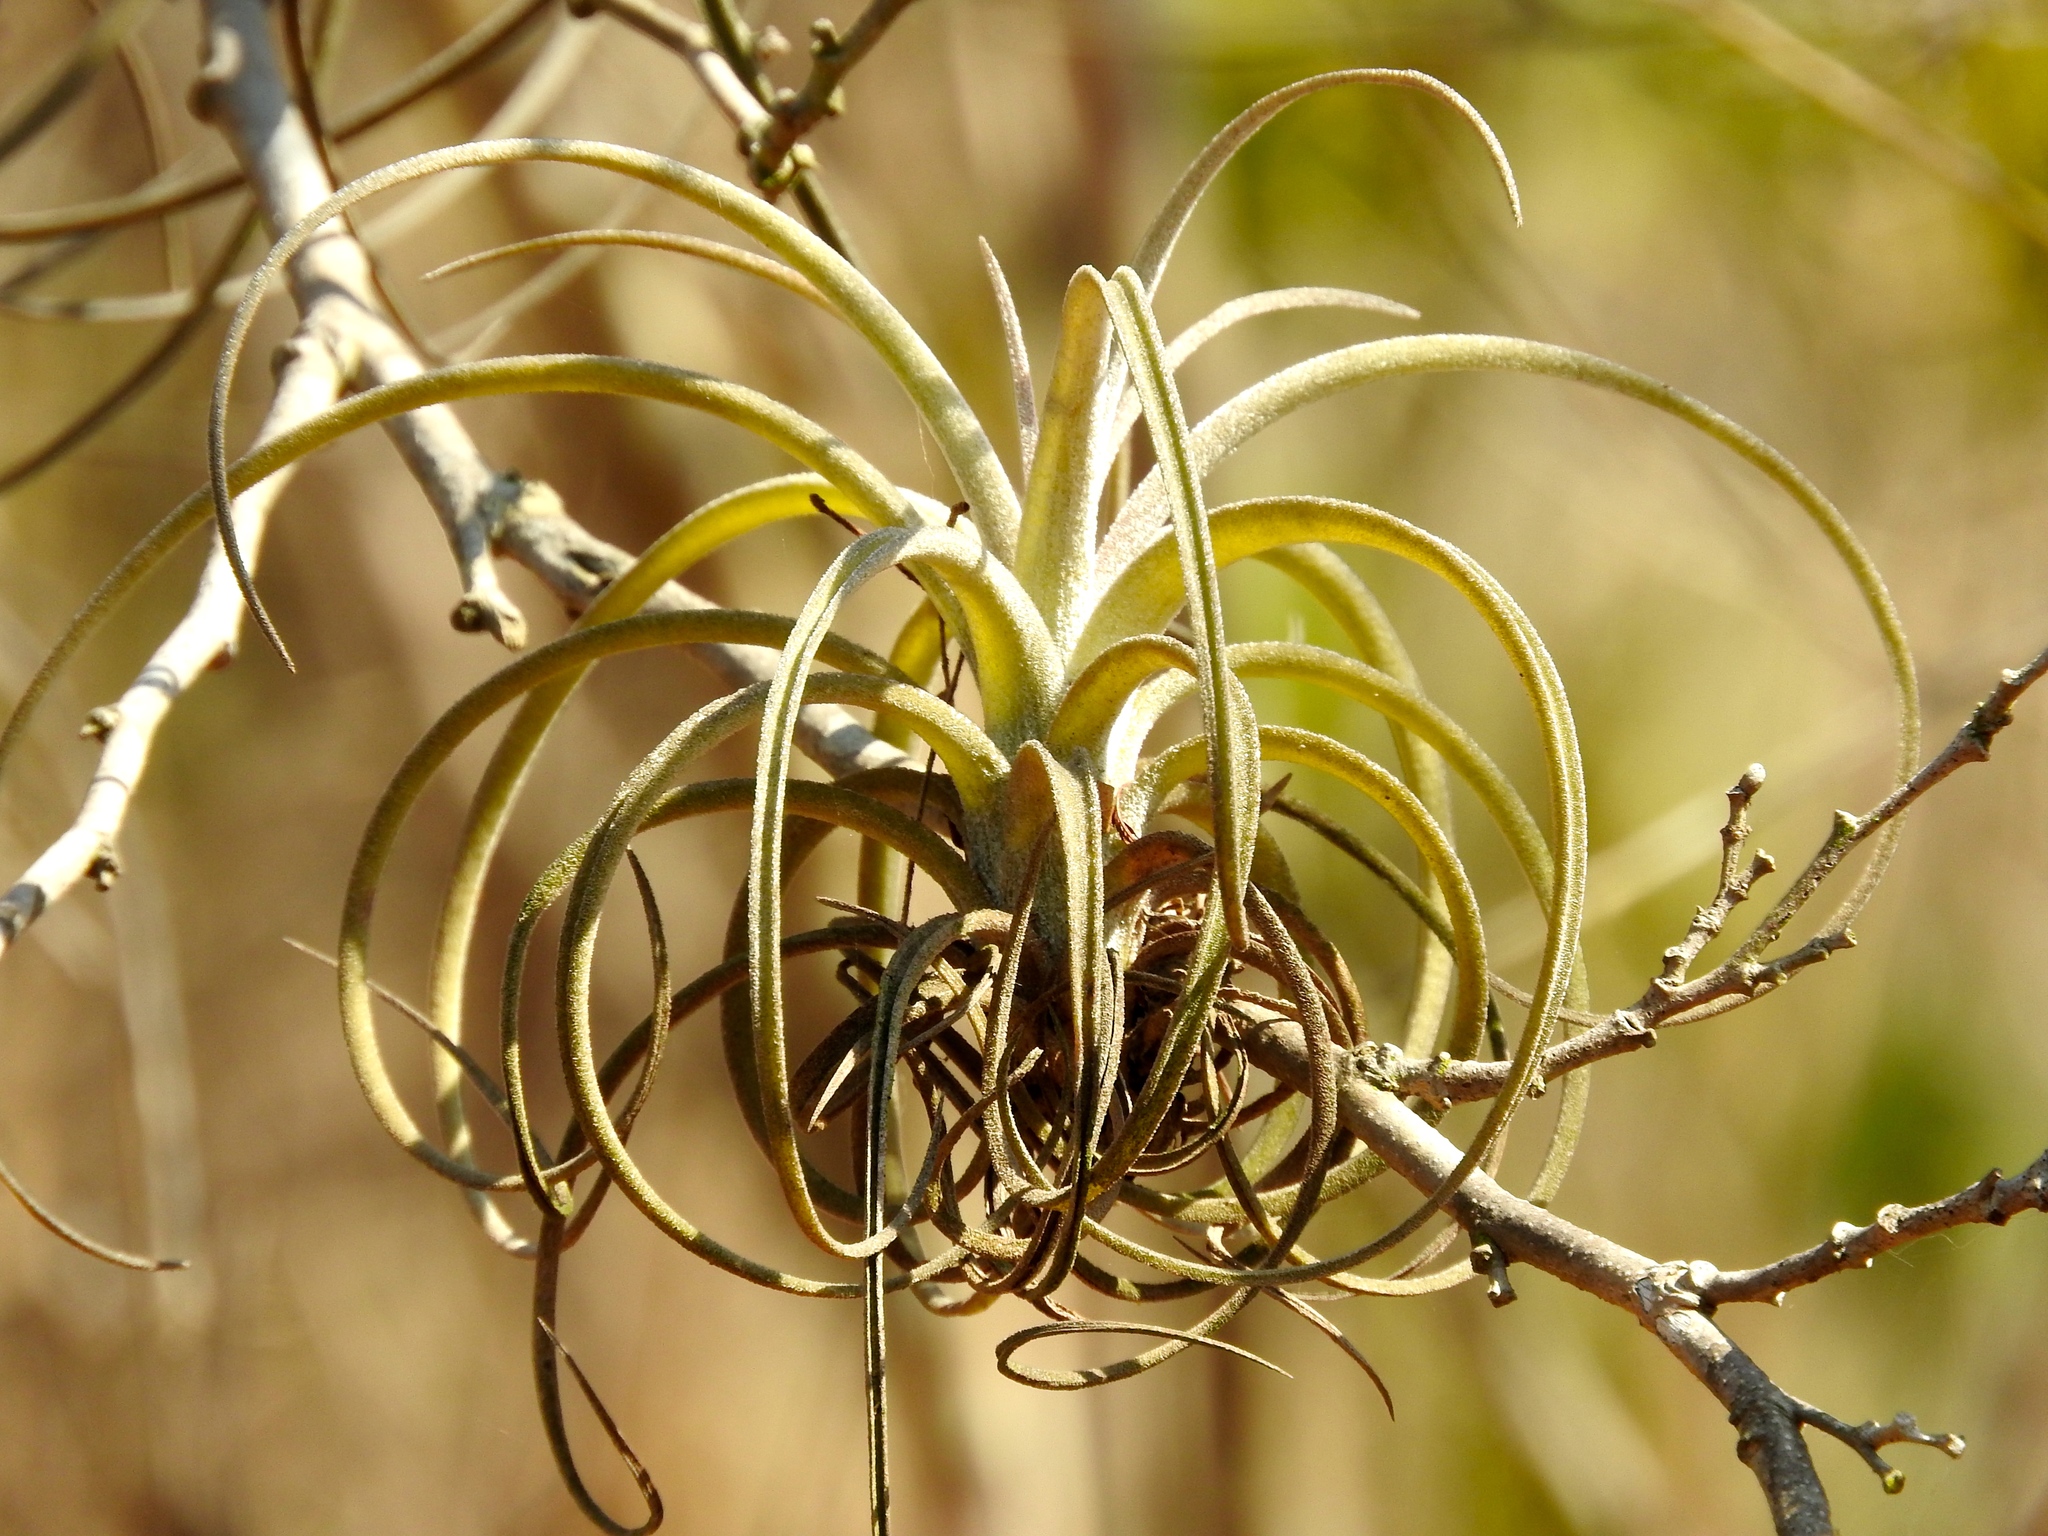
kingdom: Plantae
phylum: Tracheophyta
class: Liliopsida
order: Poales
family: Bromeliaceae
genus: Tillandsia
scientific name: Tillandsia exserta
